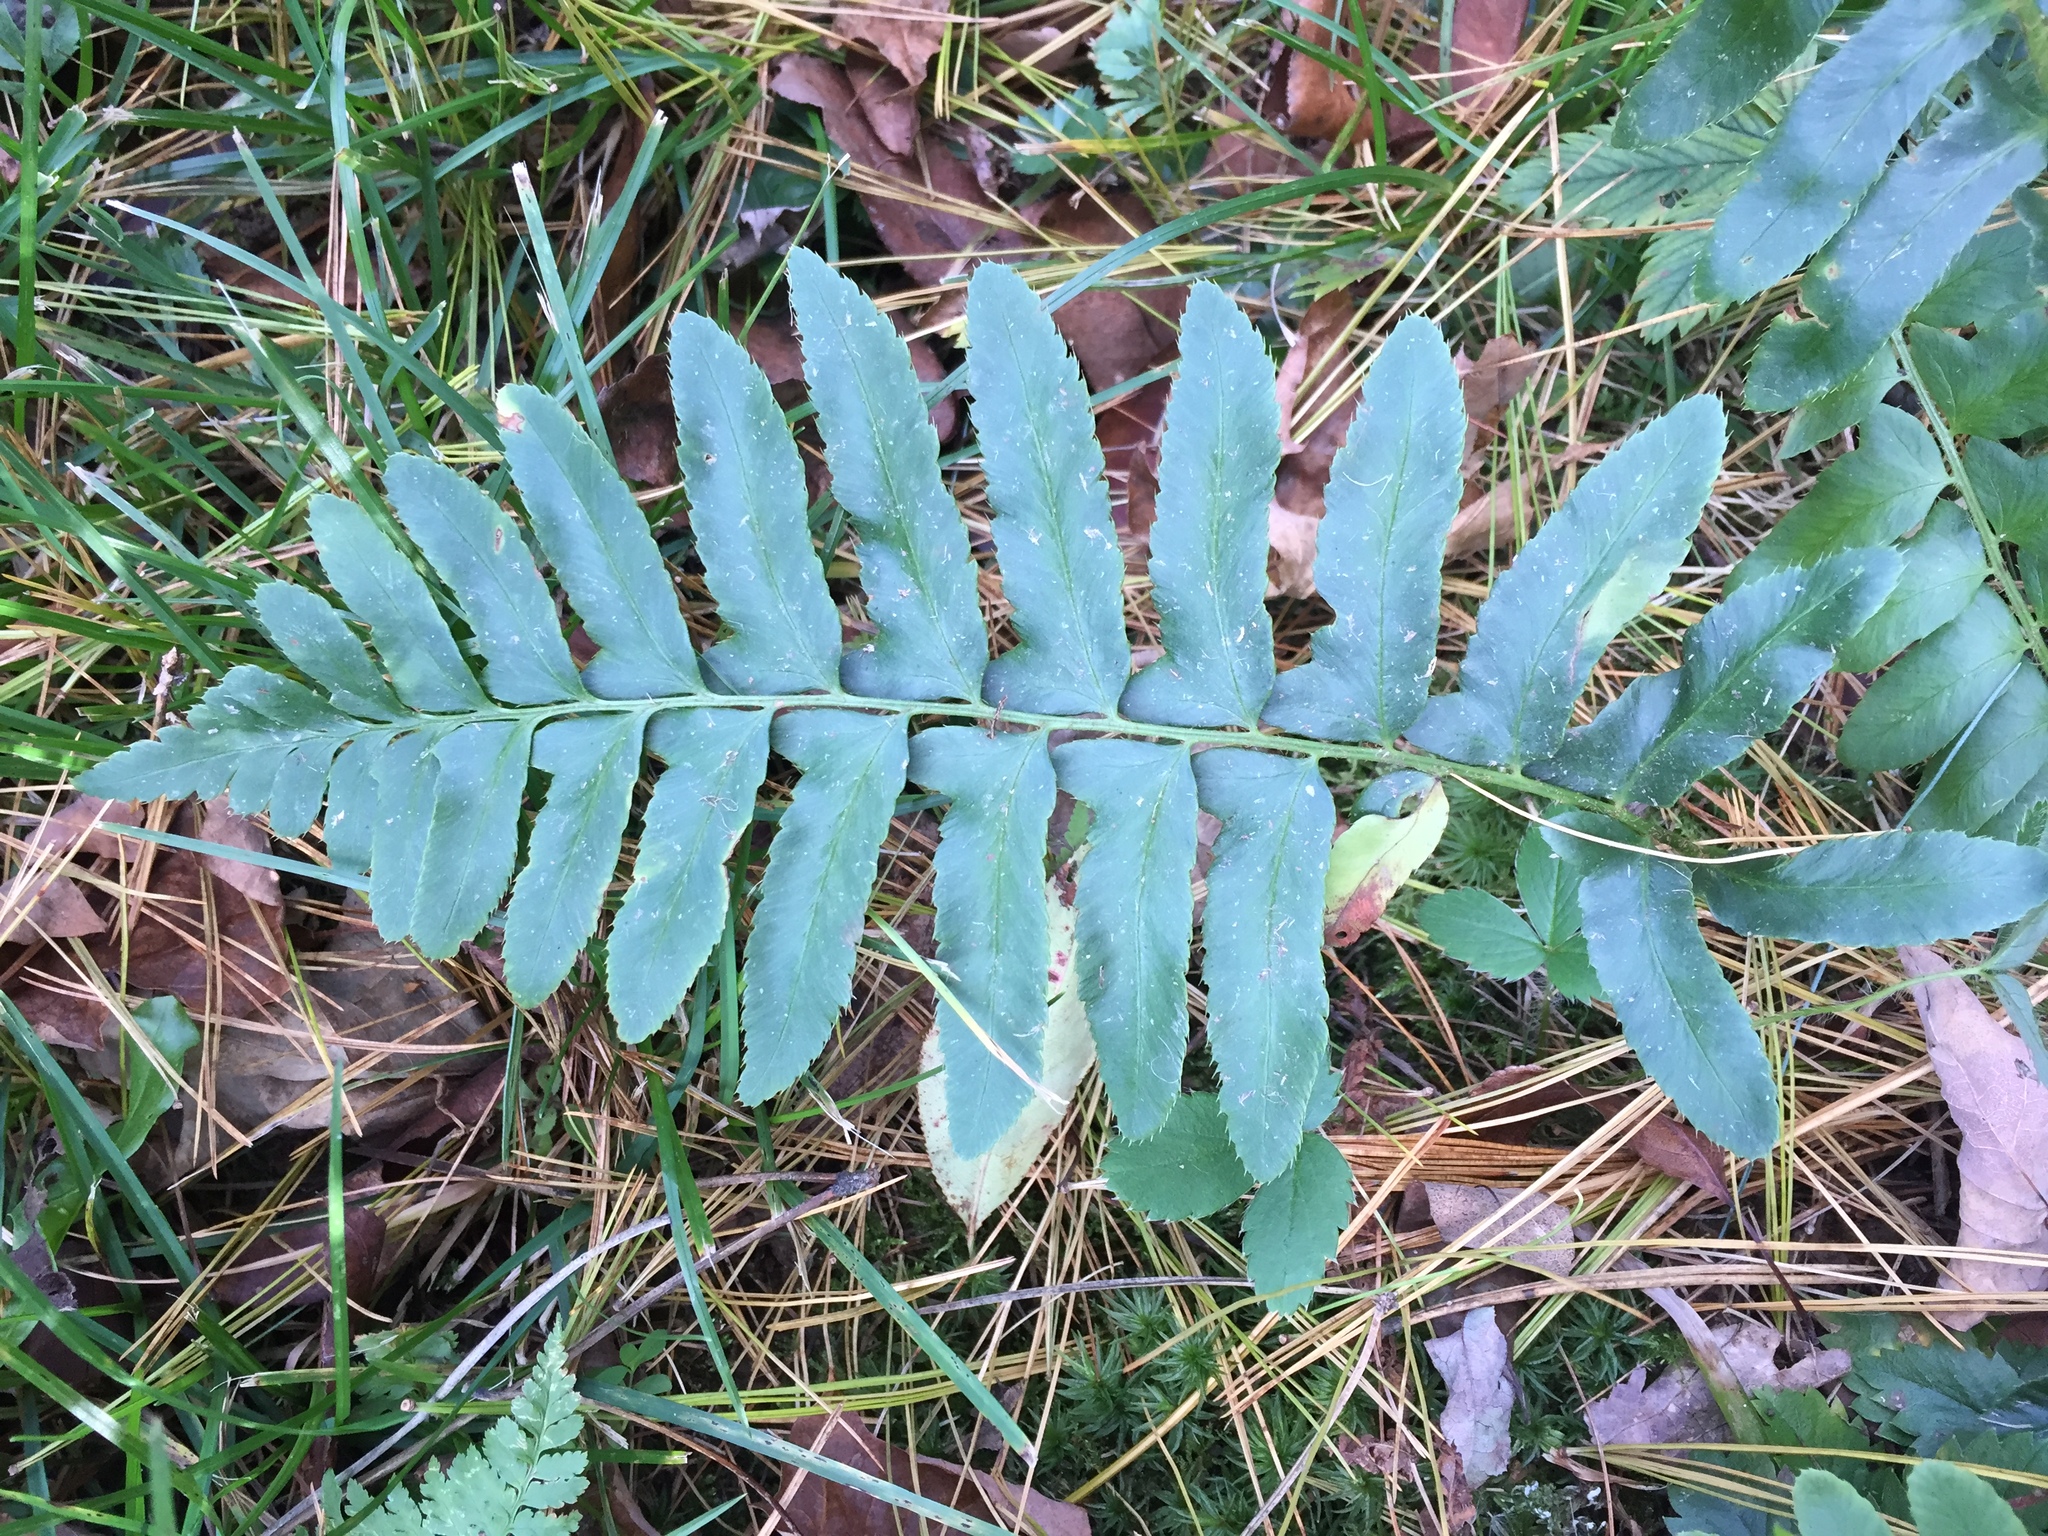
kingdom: Plantae
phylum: Tracheophyta
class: Polypodiopsida
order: Polypodiales
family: Dryopteridaceae
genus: Polystichum
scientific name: Polystichum acrostichoides
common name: Christmas fern
